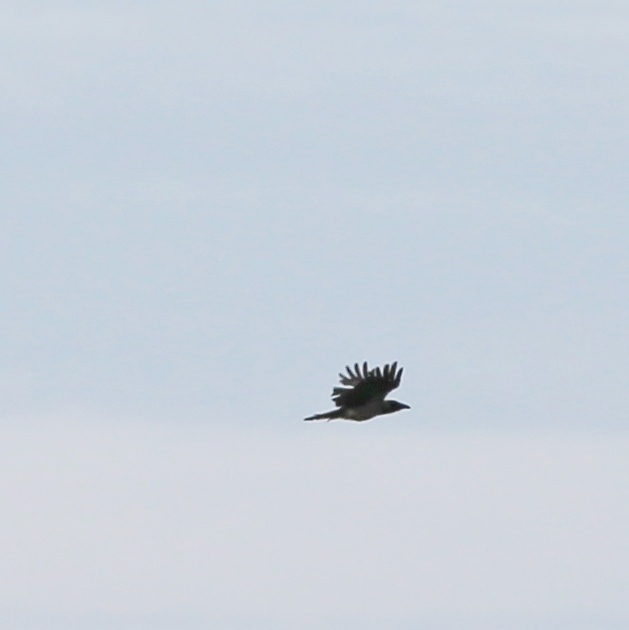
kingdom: Animalia
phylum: Chordata
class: Aves
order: Passeriformes
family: Corvidae
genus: Corvus
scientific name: Corvus cornix
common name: Hooded crow
